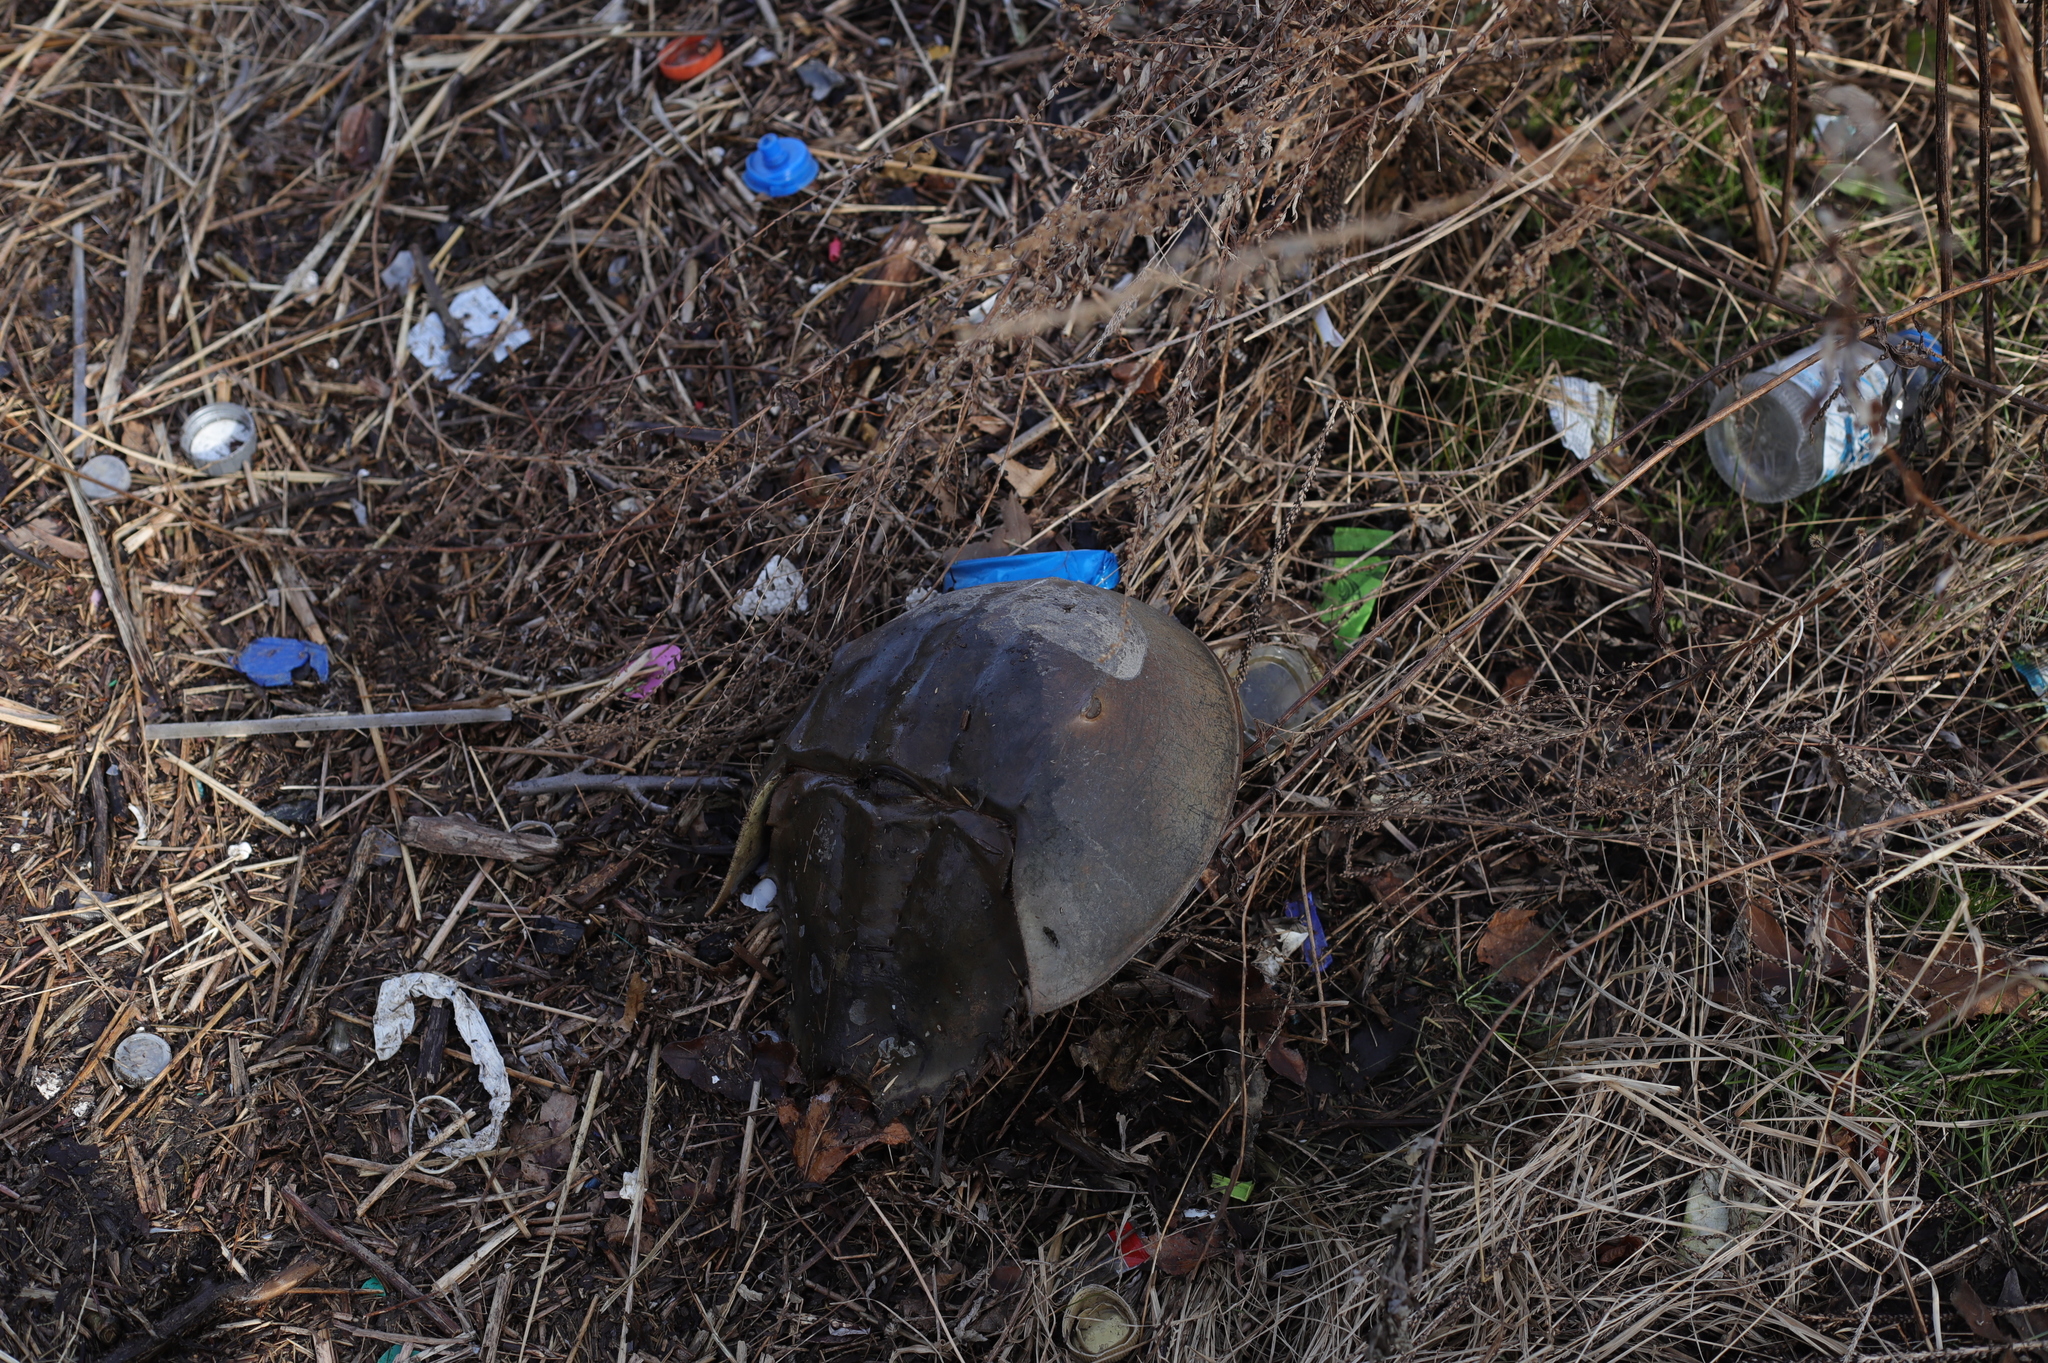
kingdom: Animalia
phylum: Arthropoda
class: Merostomata
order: Xiphosurida
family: Limulidae
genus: Limulus
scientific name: Limulus polyphemus
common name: Horseshoe crab
